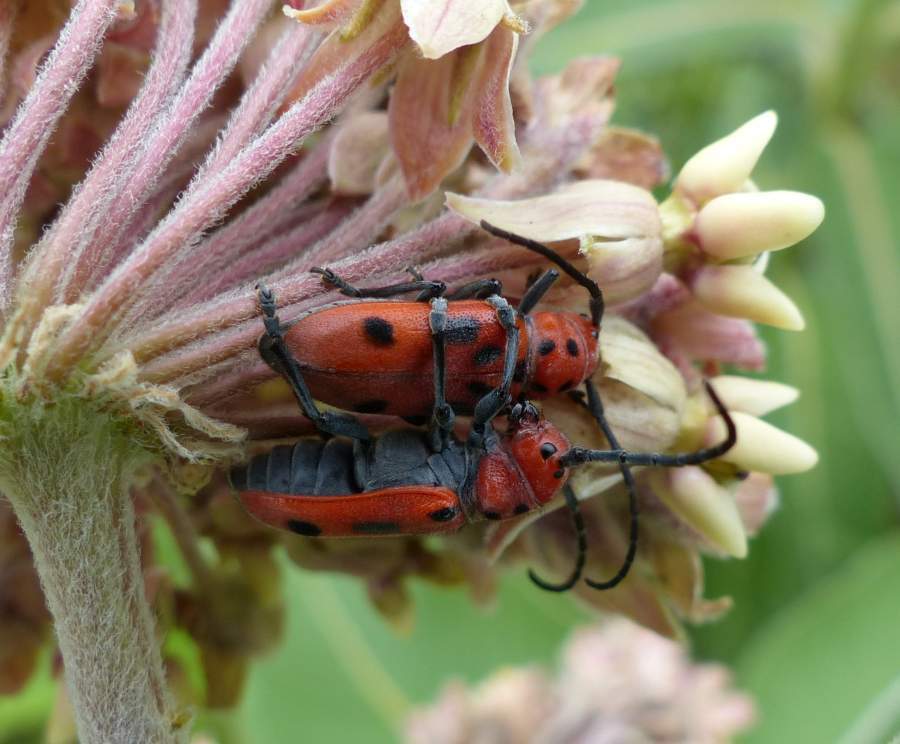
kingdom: Animalia
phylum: Arthropoda
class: Insecta
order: Coleoptera
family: Cerambycidae
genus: Tetraopes
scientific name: Tetraopes tetrophthalmus
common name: Red milkweed beetle
